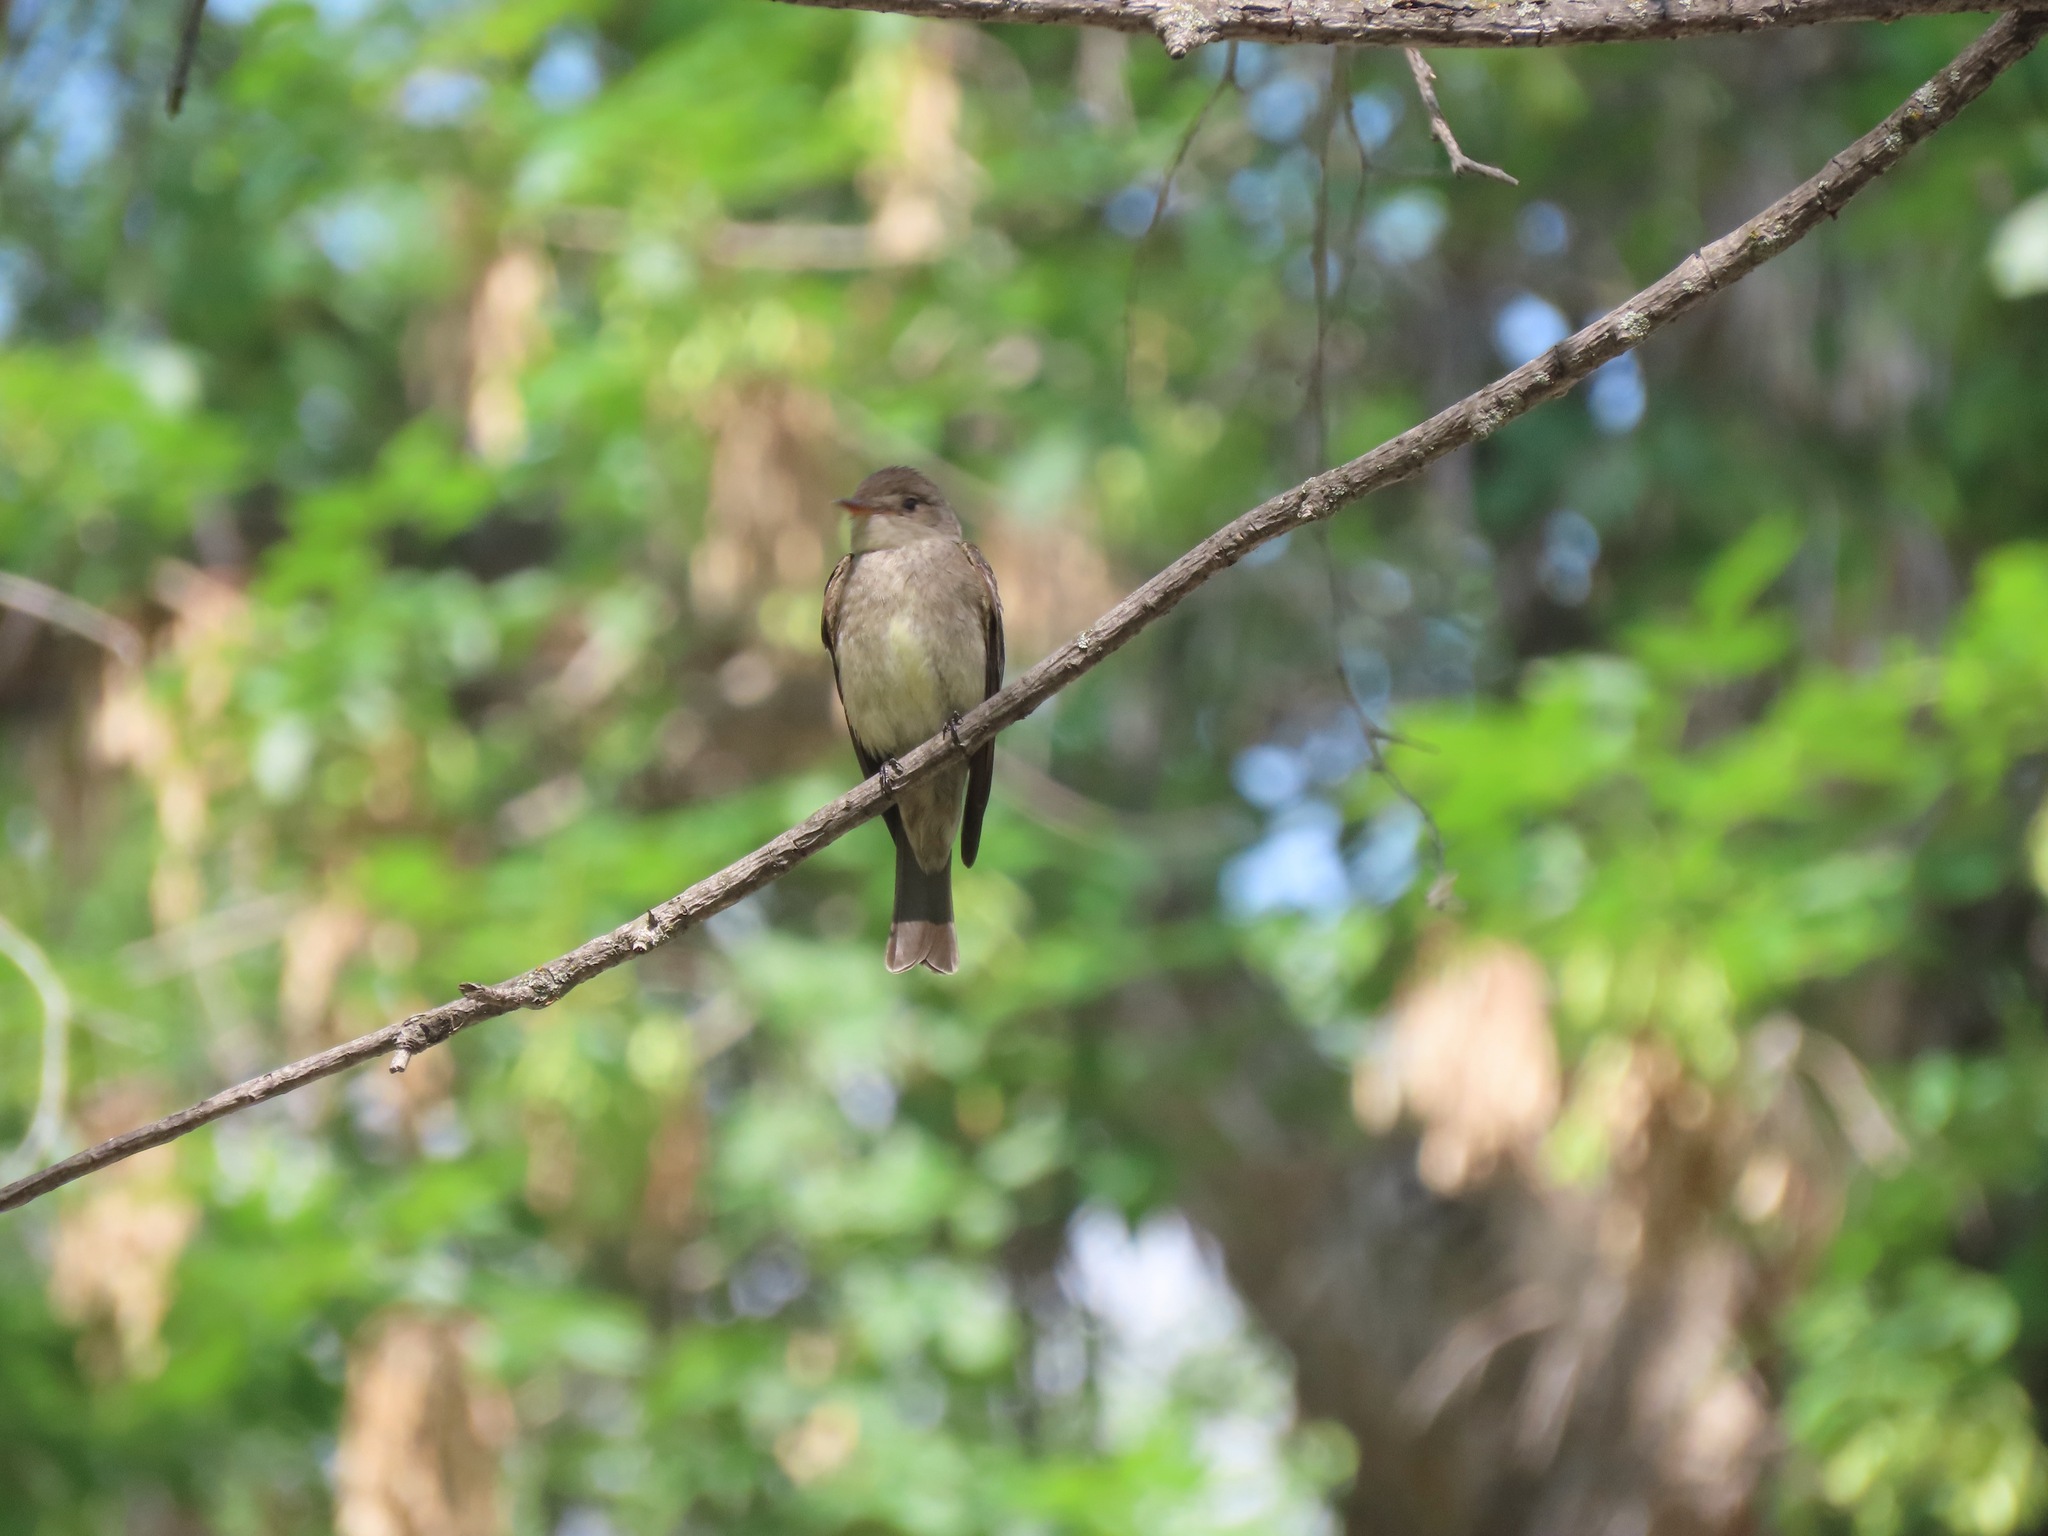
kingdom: Animalia
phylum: Chordata
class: Aves
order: Passeriformes
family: Tyrannidae
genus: Contopus
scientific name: Contopus sordidulus
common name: Western wood-pewee
